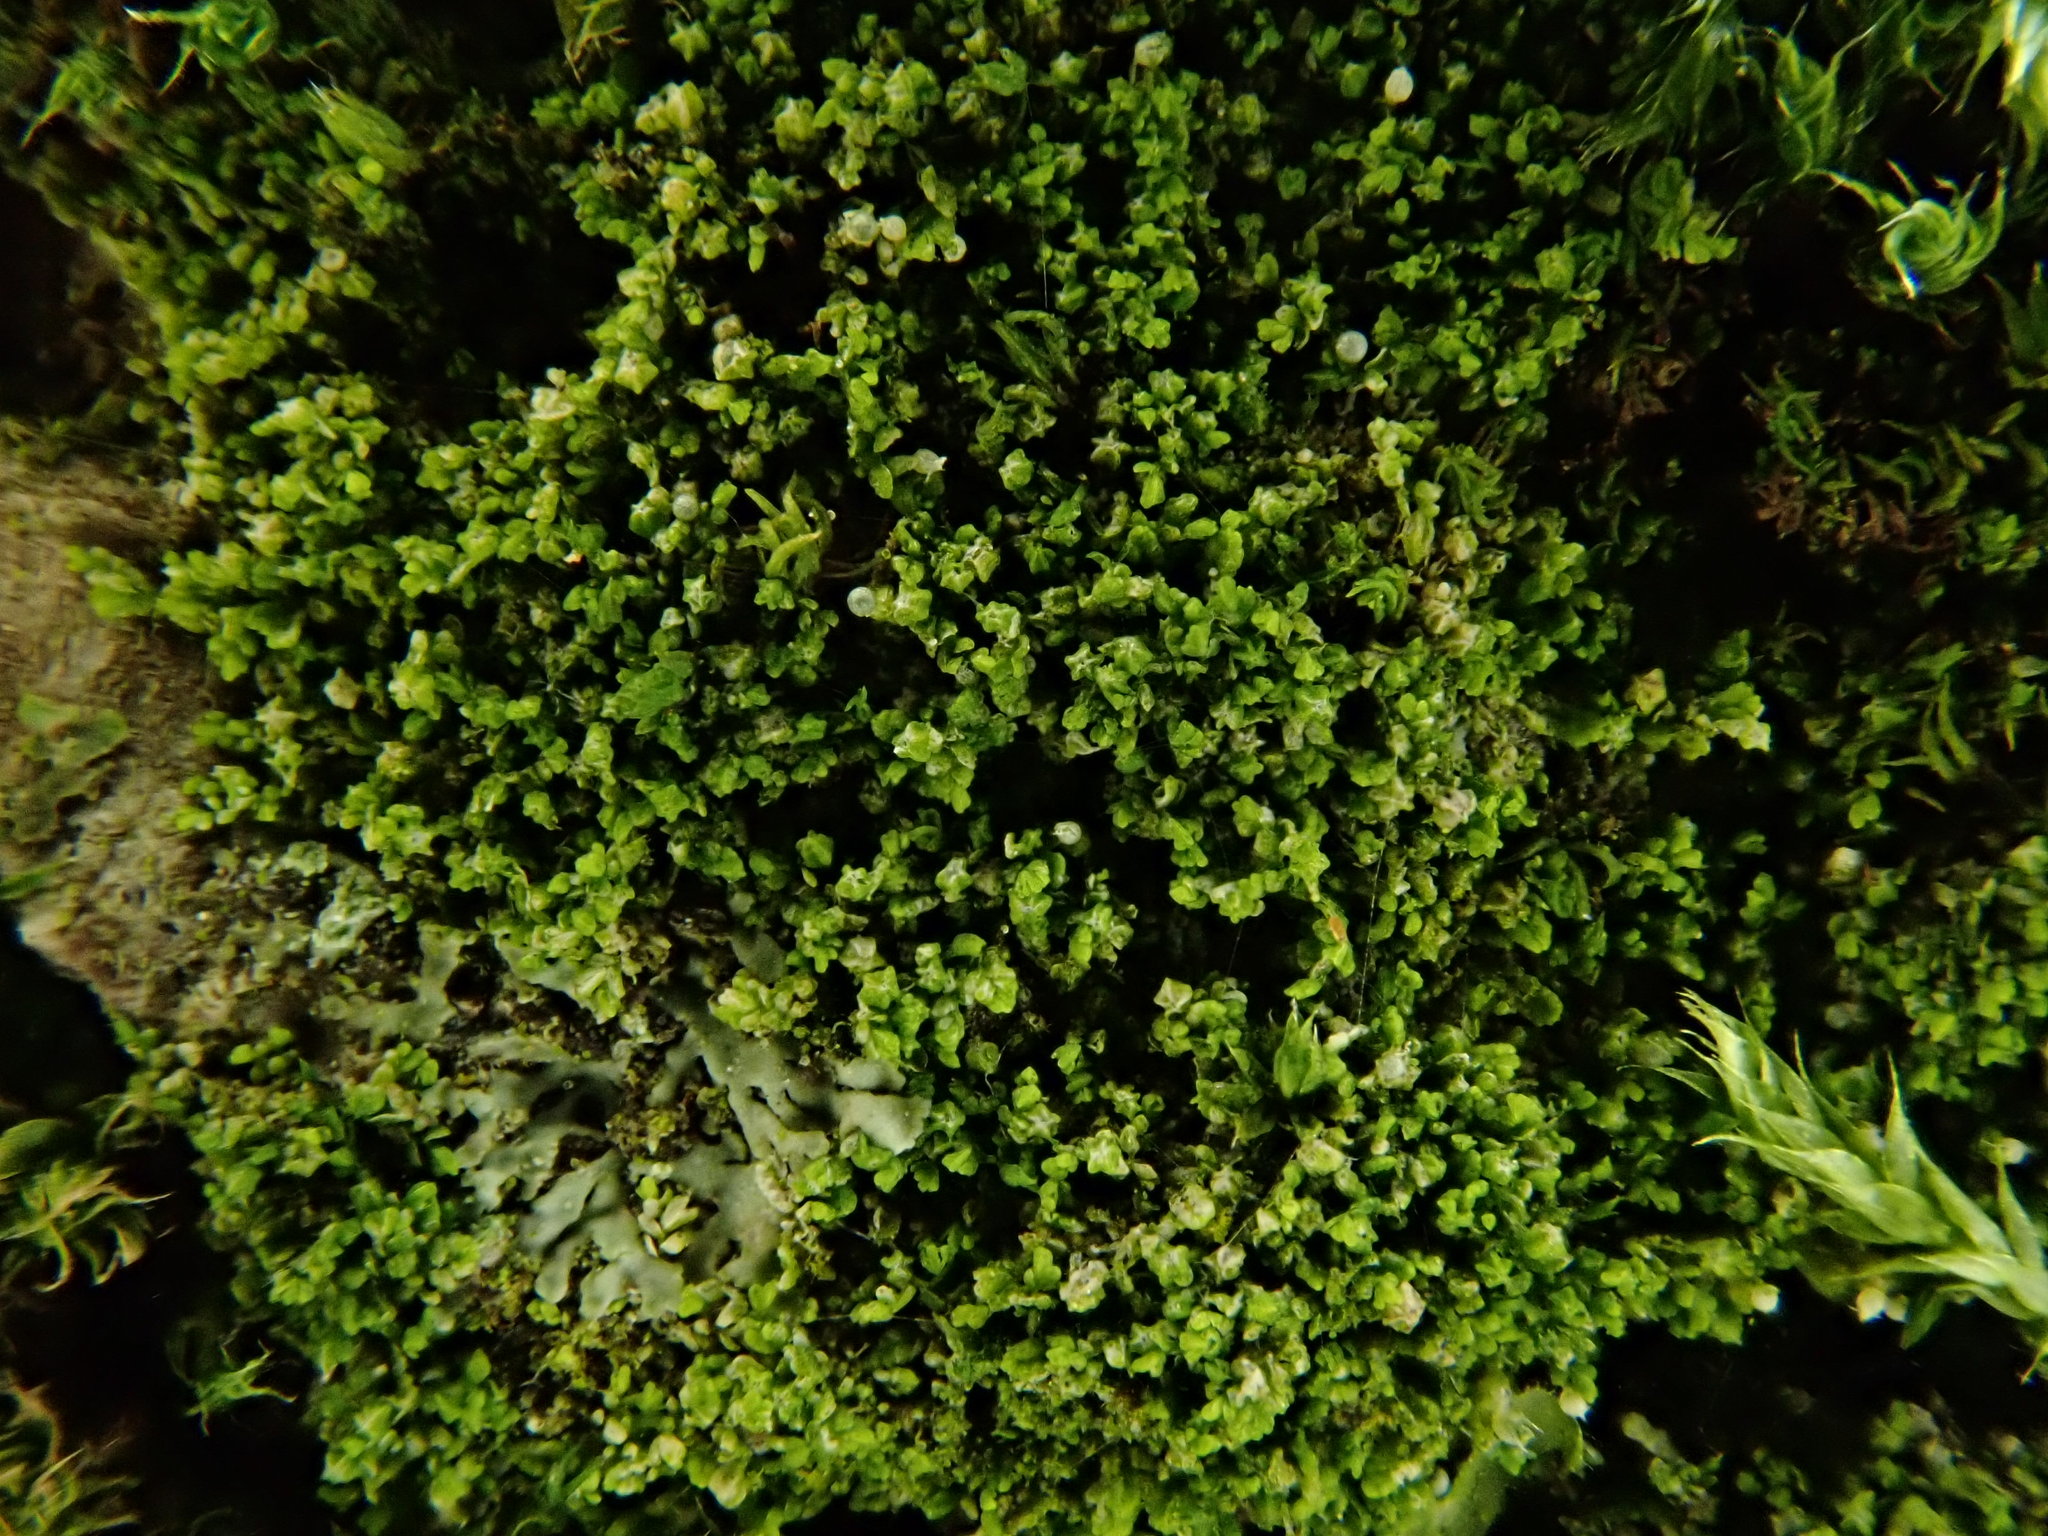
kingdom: Plantae
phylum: Marchantiophyta
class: Jungermanniopsida
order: Porellales
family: Lejeuneaceae
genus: Myriocoleopsis
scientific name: Myriocoleopsis minutissima
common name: Minute pouncewort
